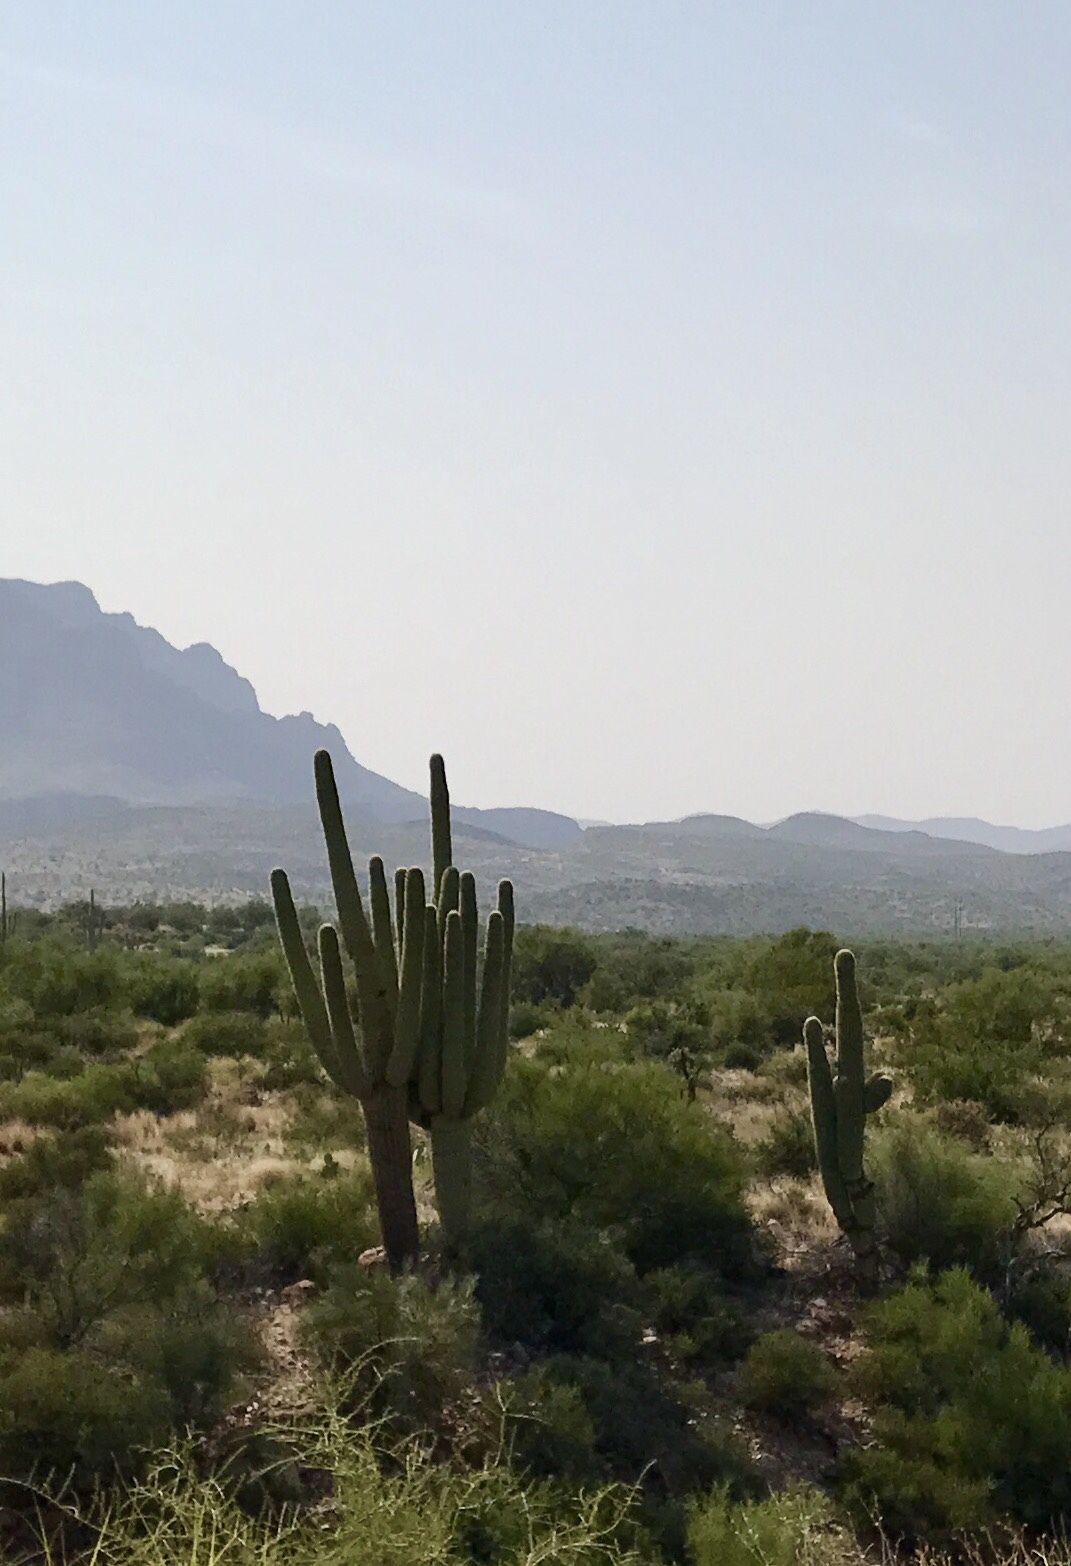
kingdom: Plantae
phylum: Tracheophyta
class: Magnoliopsida
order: Caryophyllales
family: Cactaceae
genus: Carnegiea
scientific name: Carnegiea gigantea
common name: Saguaro
